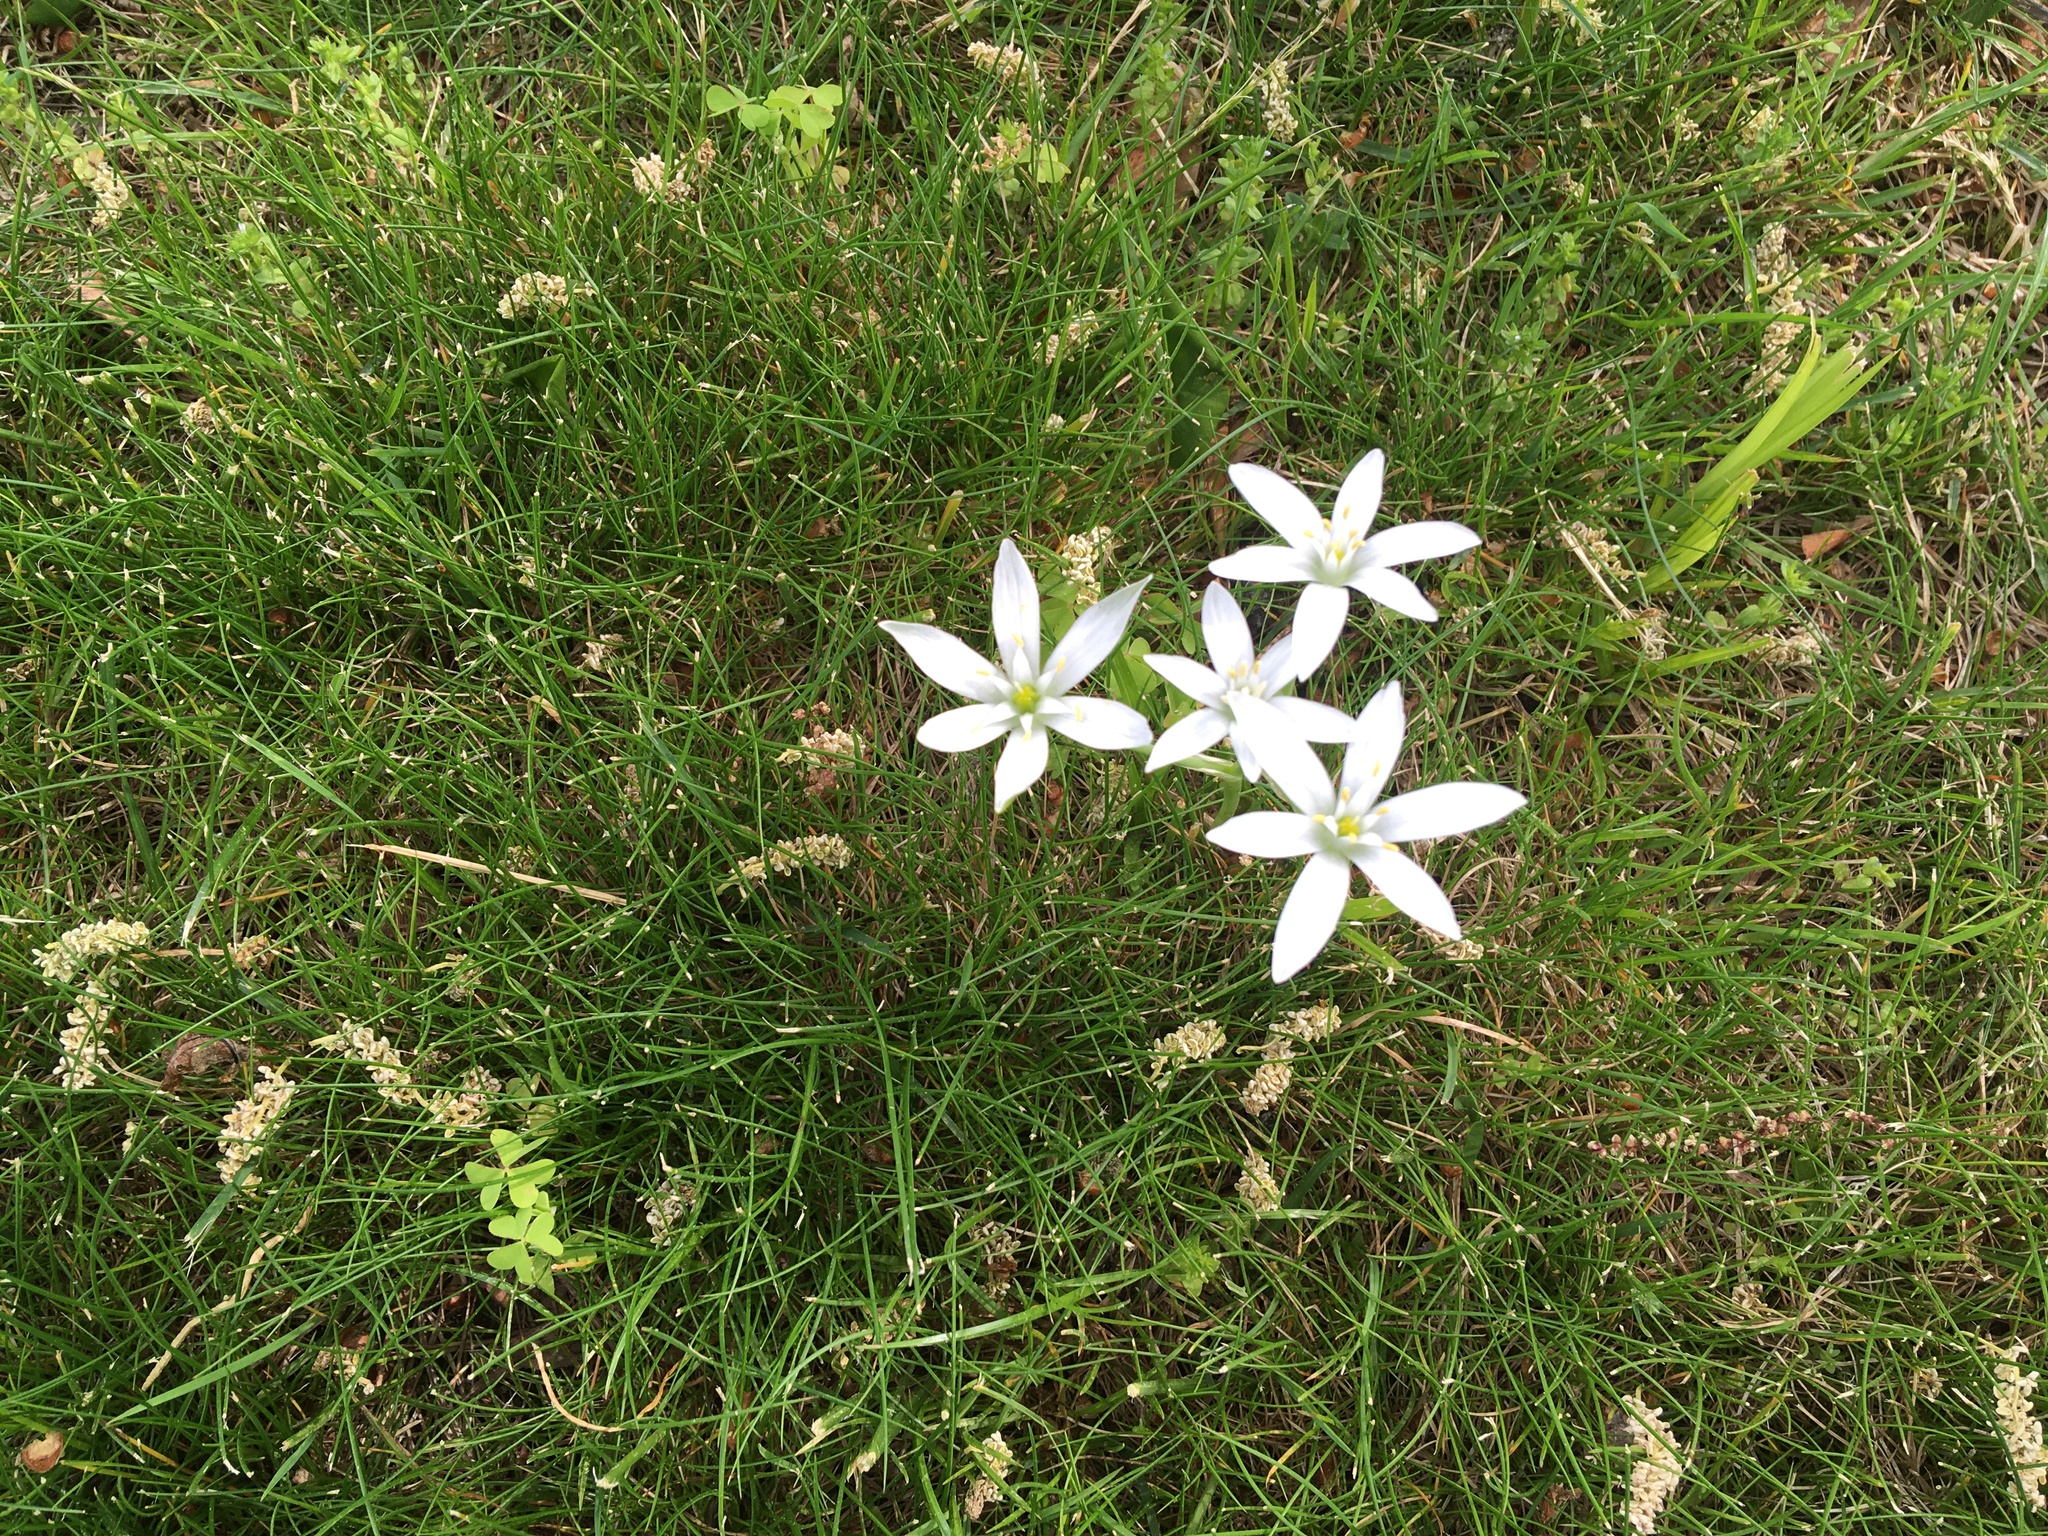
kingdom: Plantae
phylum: Tracheophyta
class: Liliopsida
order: Asparagales
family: Asparagaceae
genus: Ornithogalum
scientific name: Ornithogalum umbellatum
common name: Garden star-of-bethlehem
